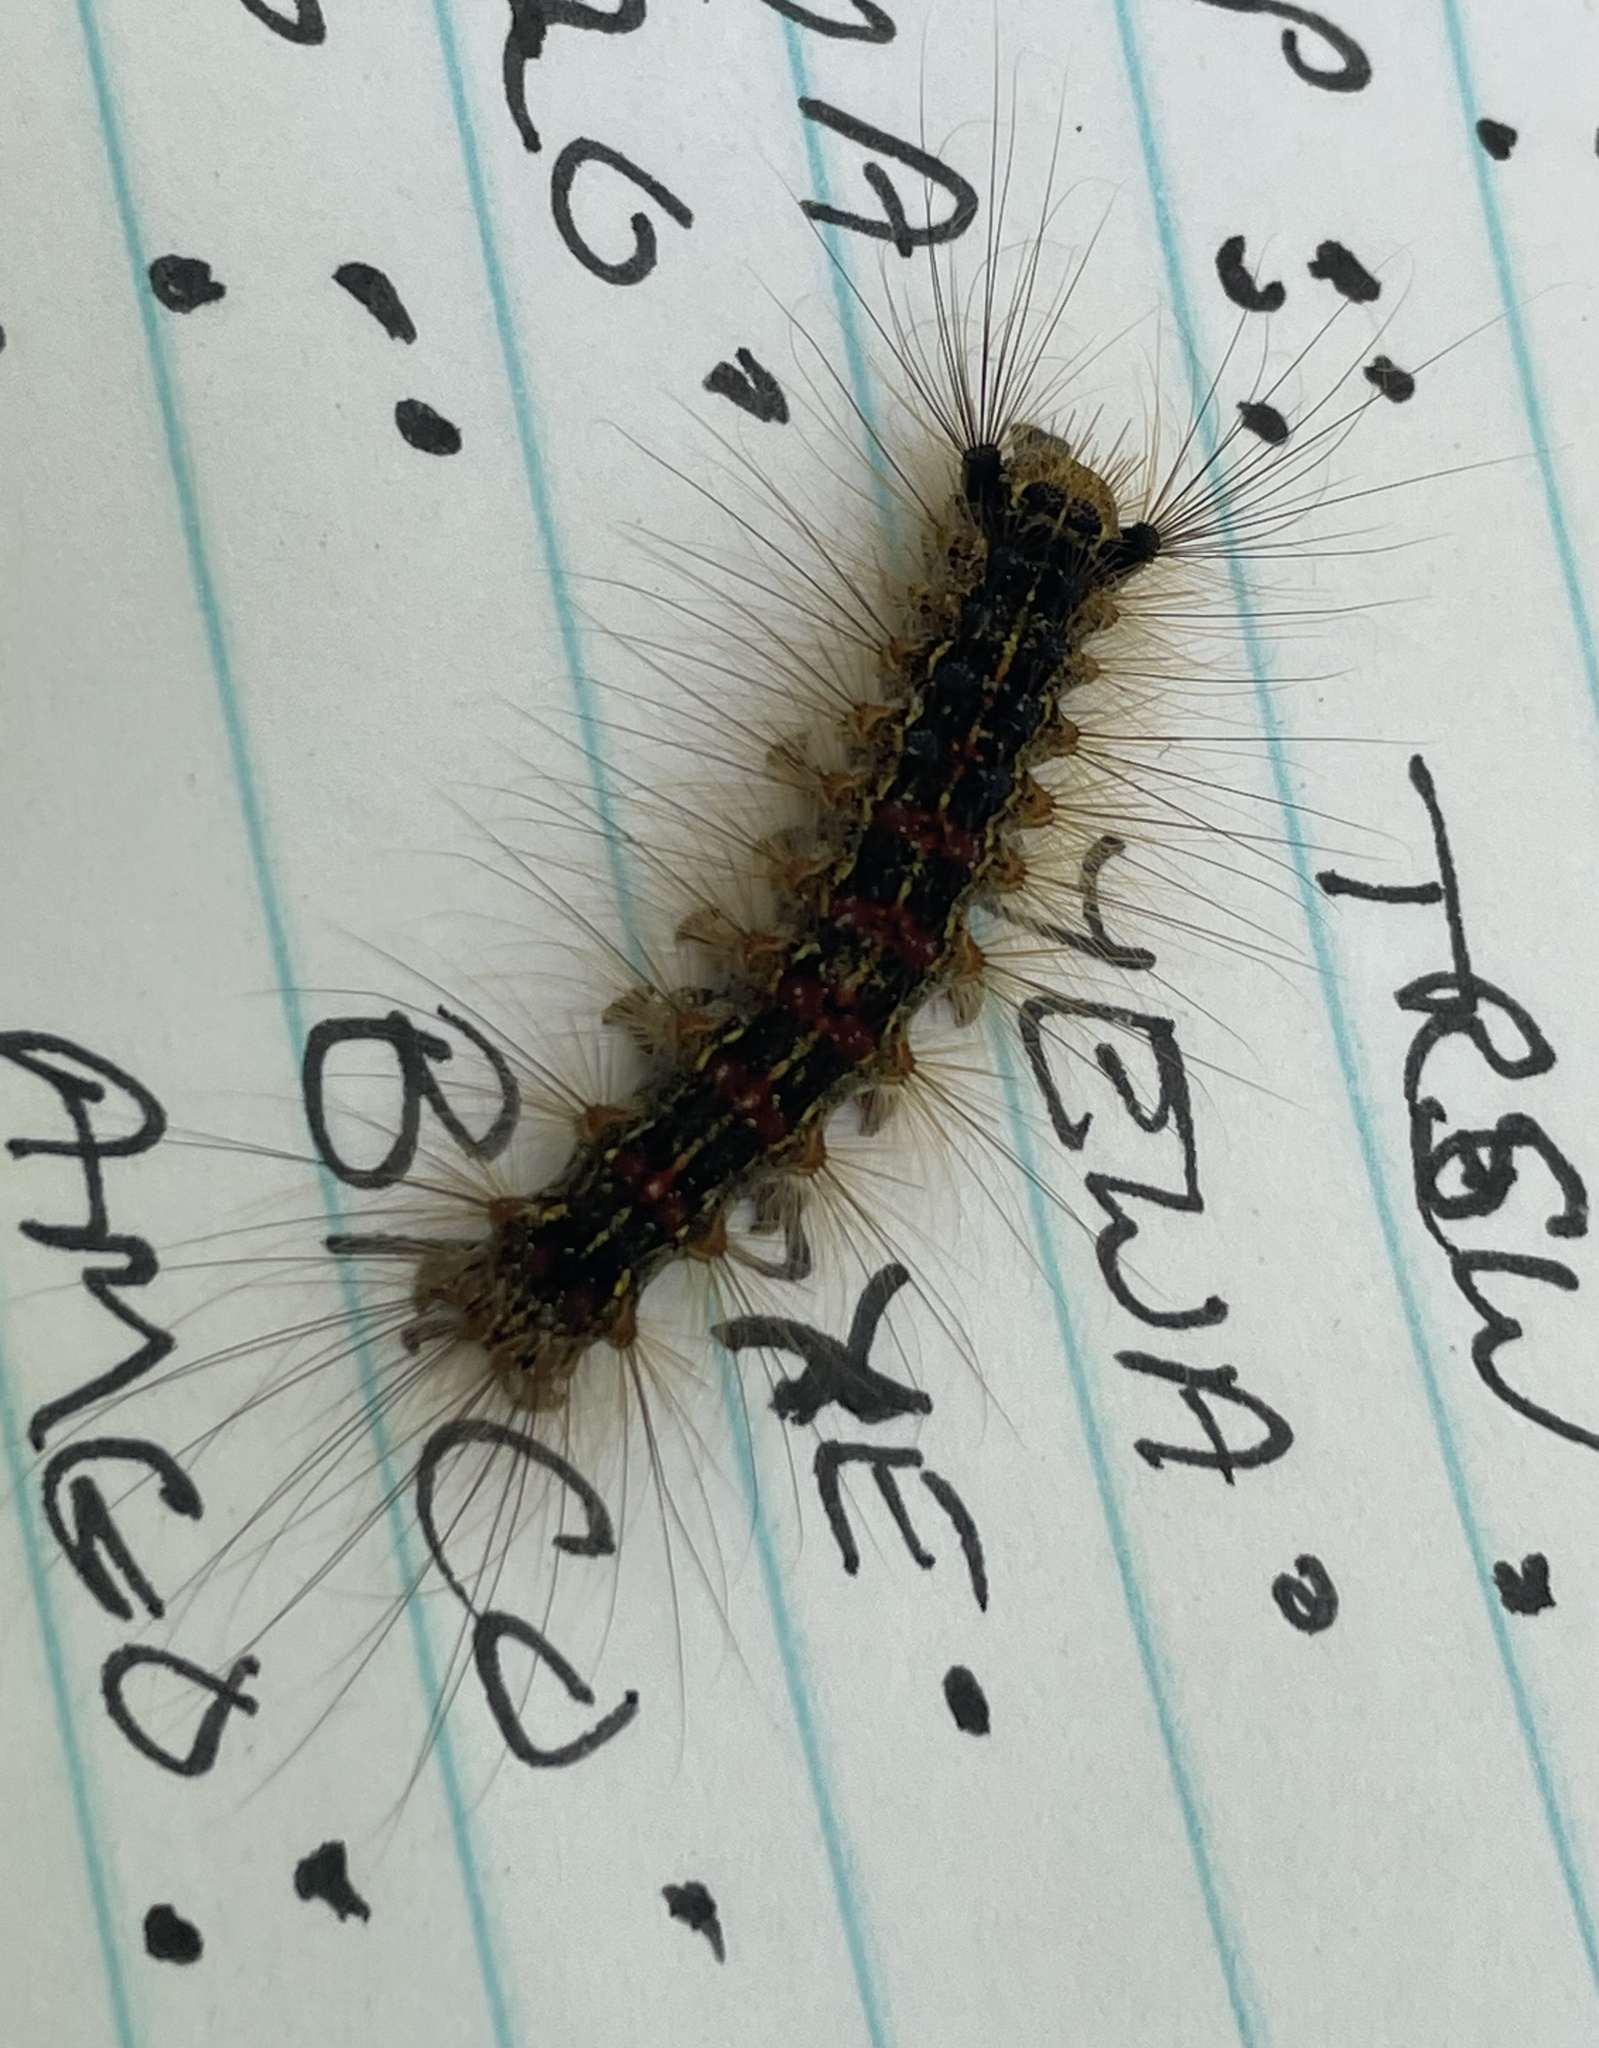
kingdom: Animalia
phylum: Arthropoda
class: Insecta
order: Lepidoptera
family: Erebidae
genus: Lymantria
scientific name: Lymantria dispar
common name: Gypsy moth
